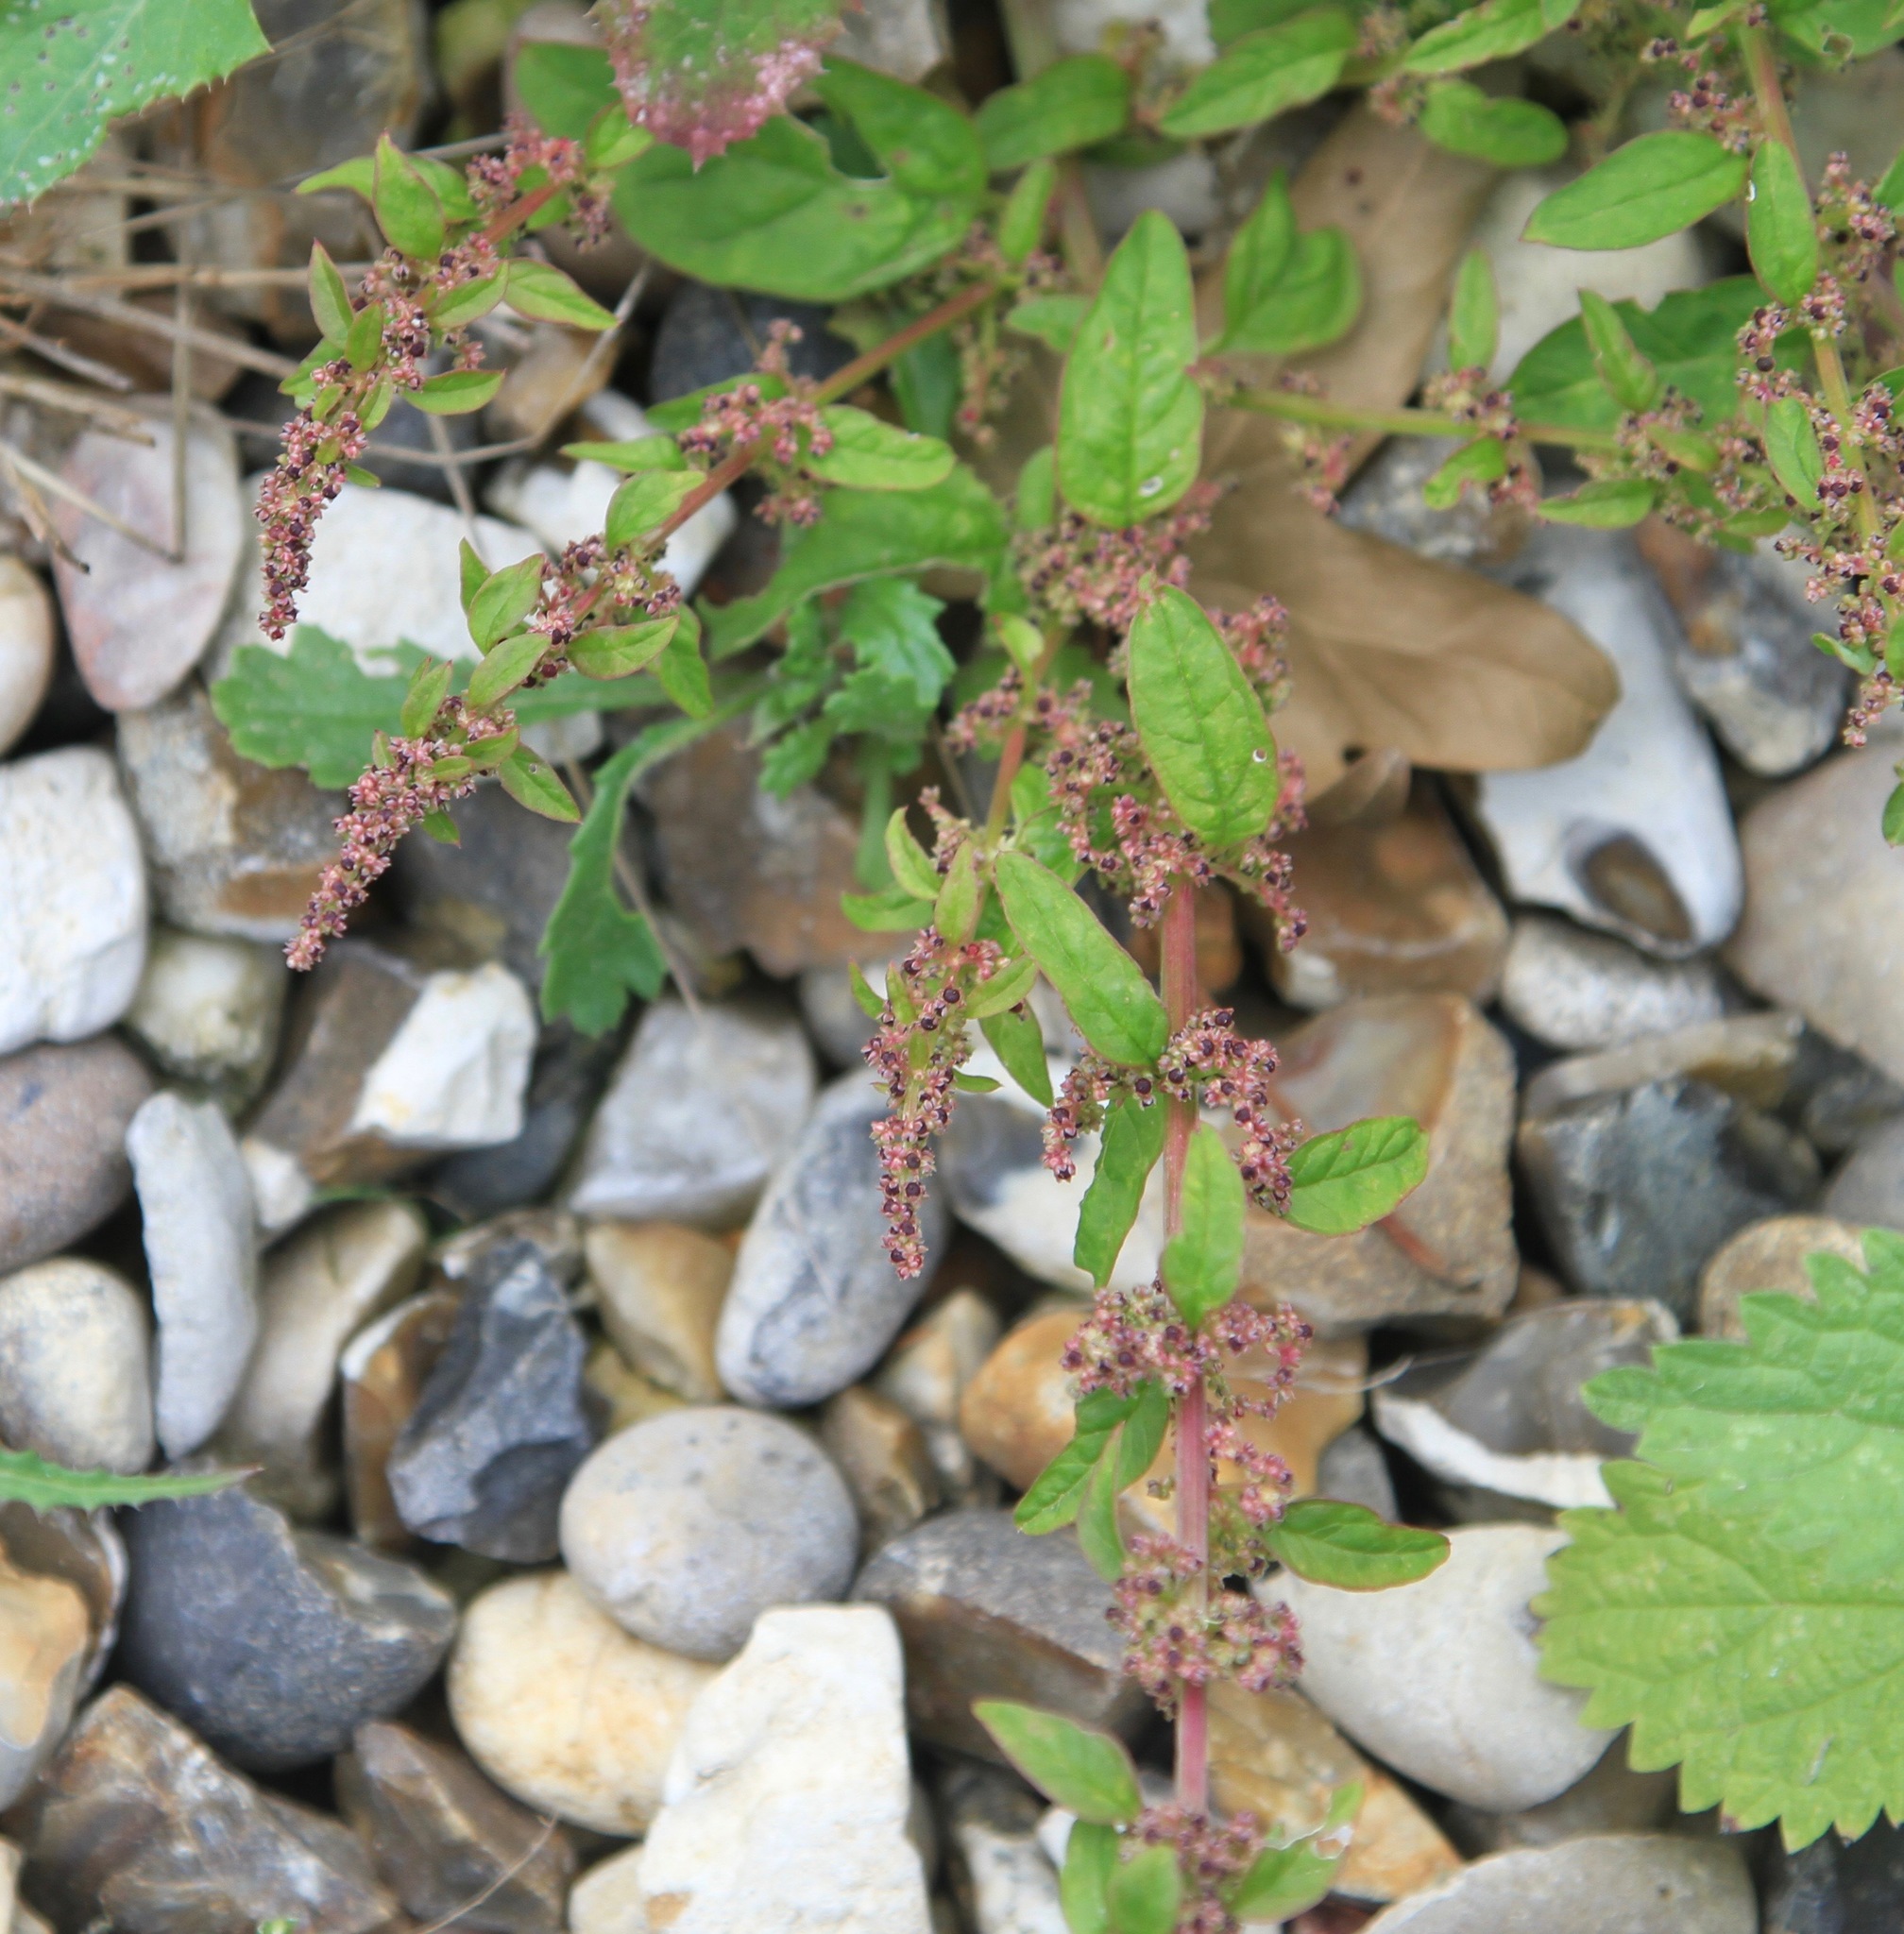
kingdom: Plantae
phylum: Tracheophyta
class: Magnoliopsida
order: Caryophyllales
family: Amaranthaceae
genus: Lipandra
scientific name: Lipandra polysperma
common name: Many-seed goosefoot
